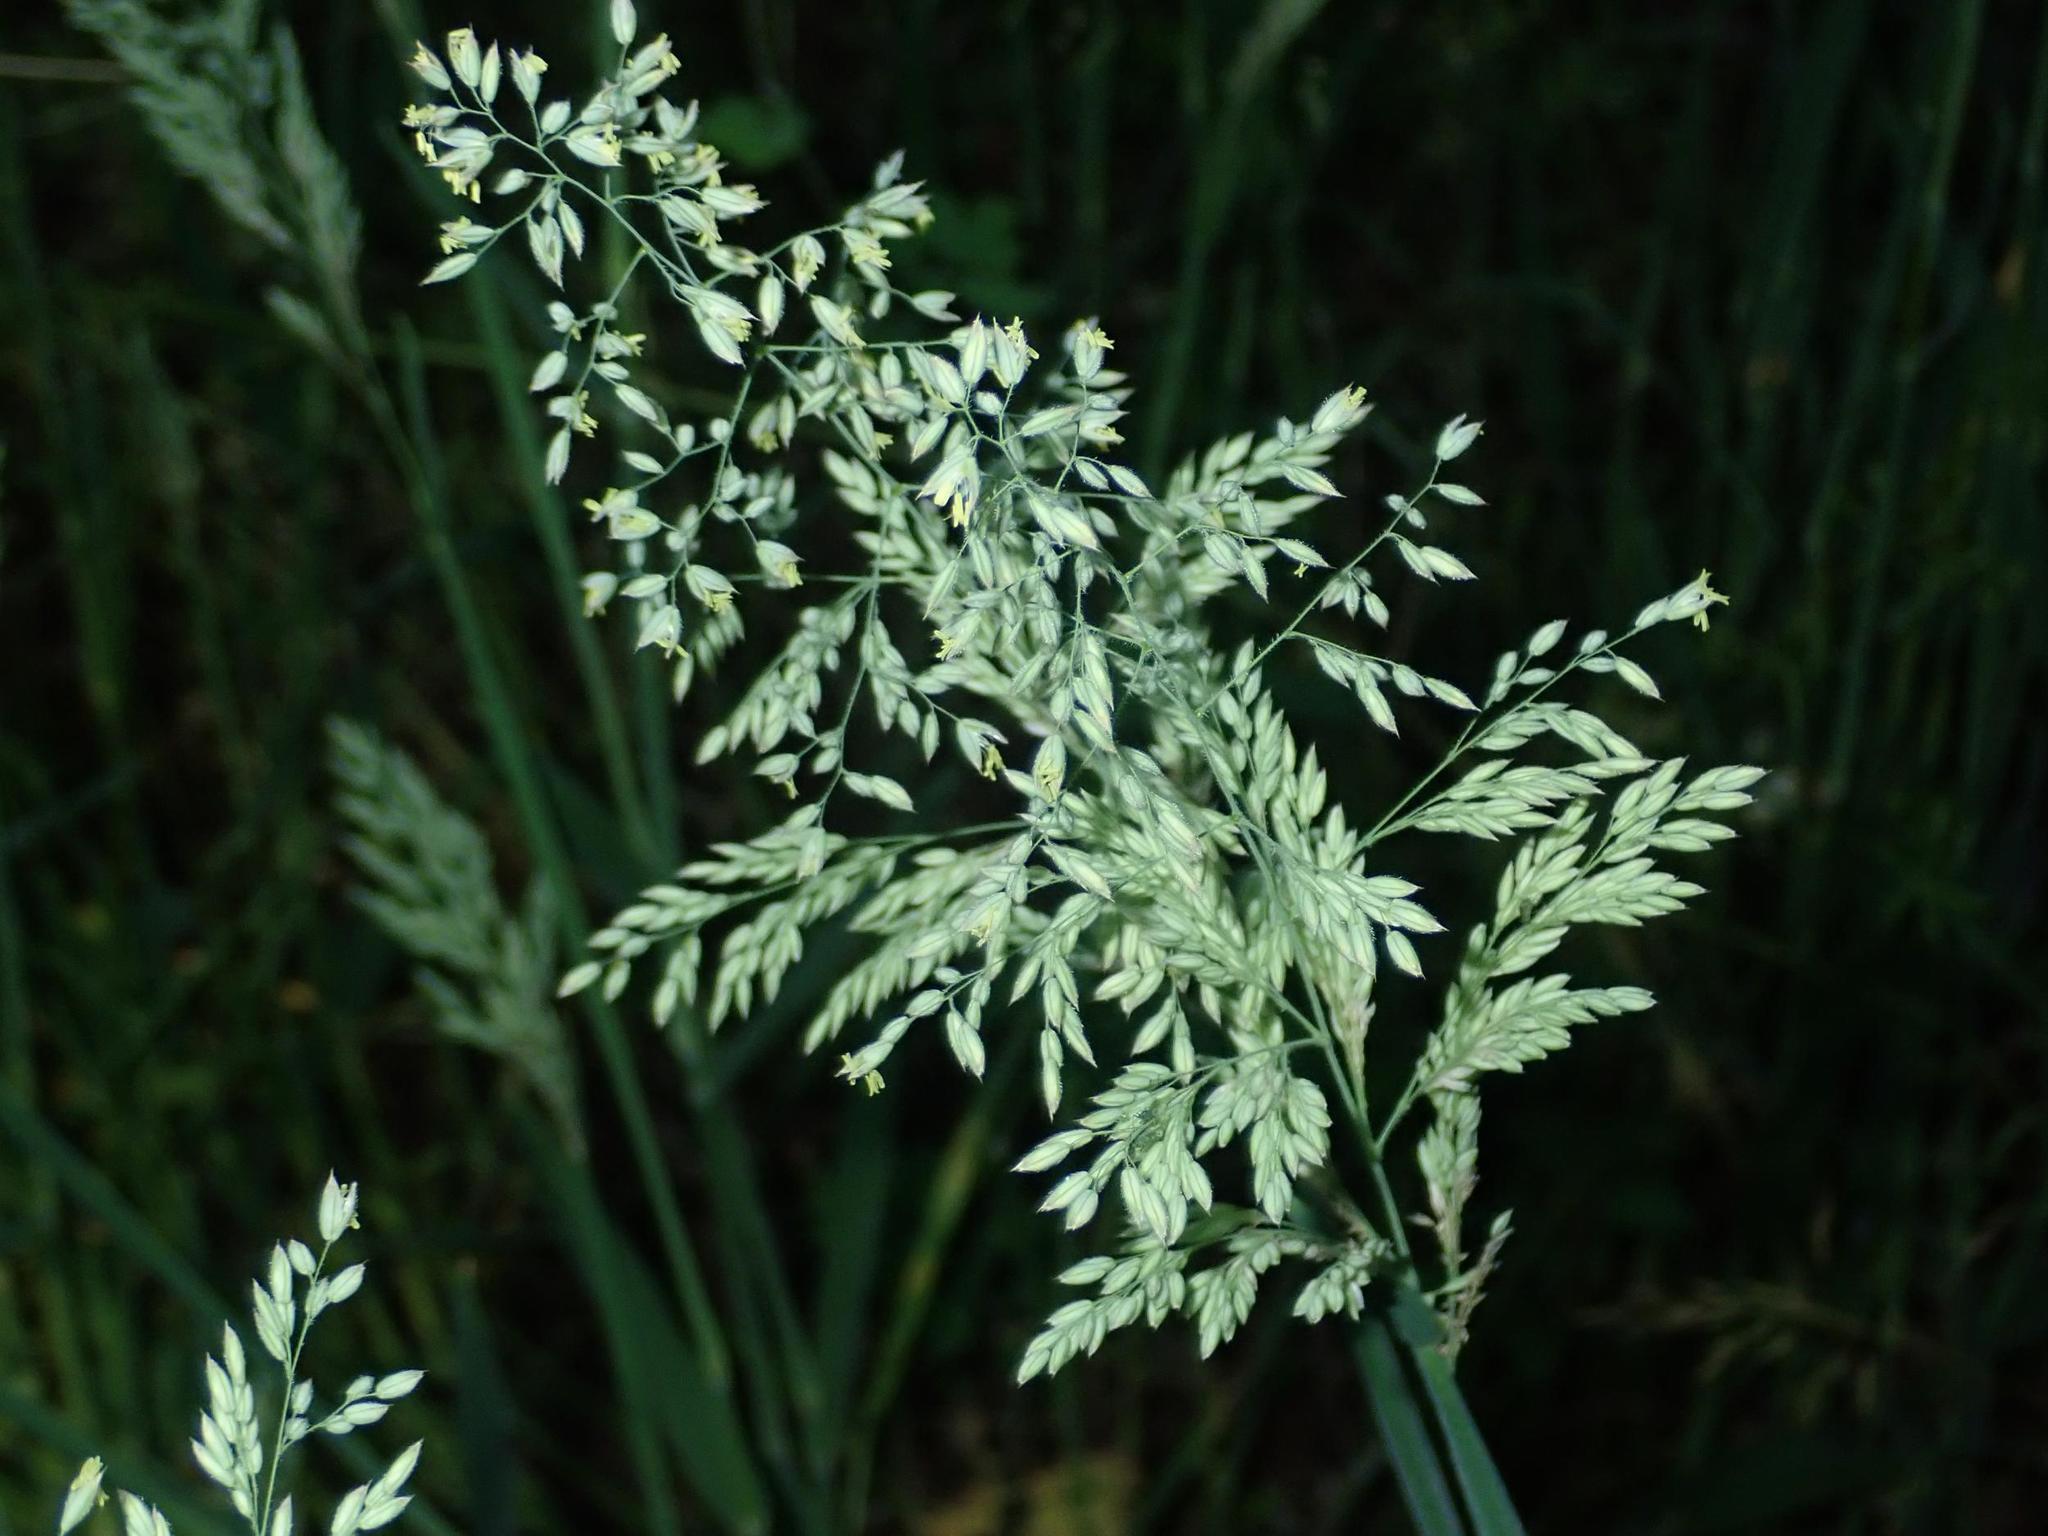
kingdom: Plantae
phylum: Tracheophyta
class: Liliopsida
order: Poales
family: Poaceae
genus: Holcus
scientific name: Holcus lanatus
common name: Yorkshire-fog
